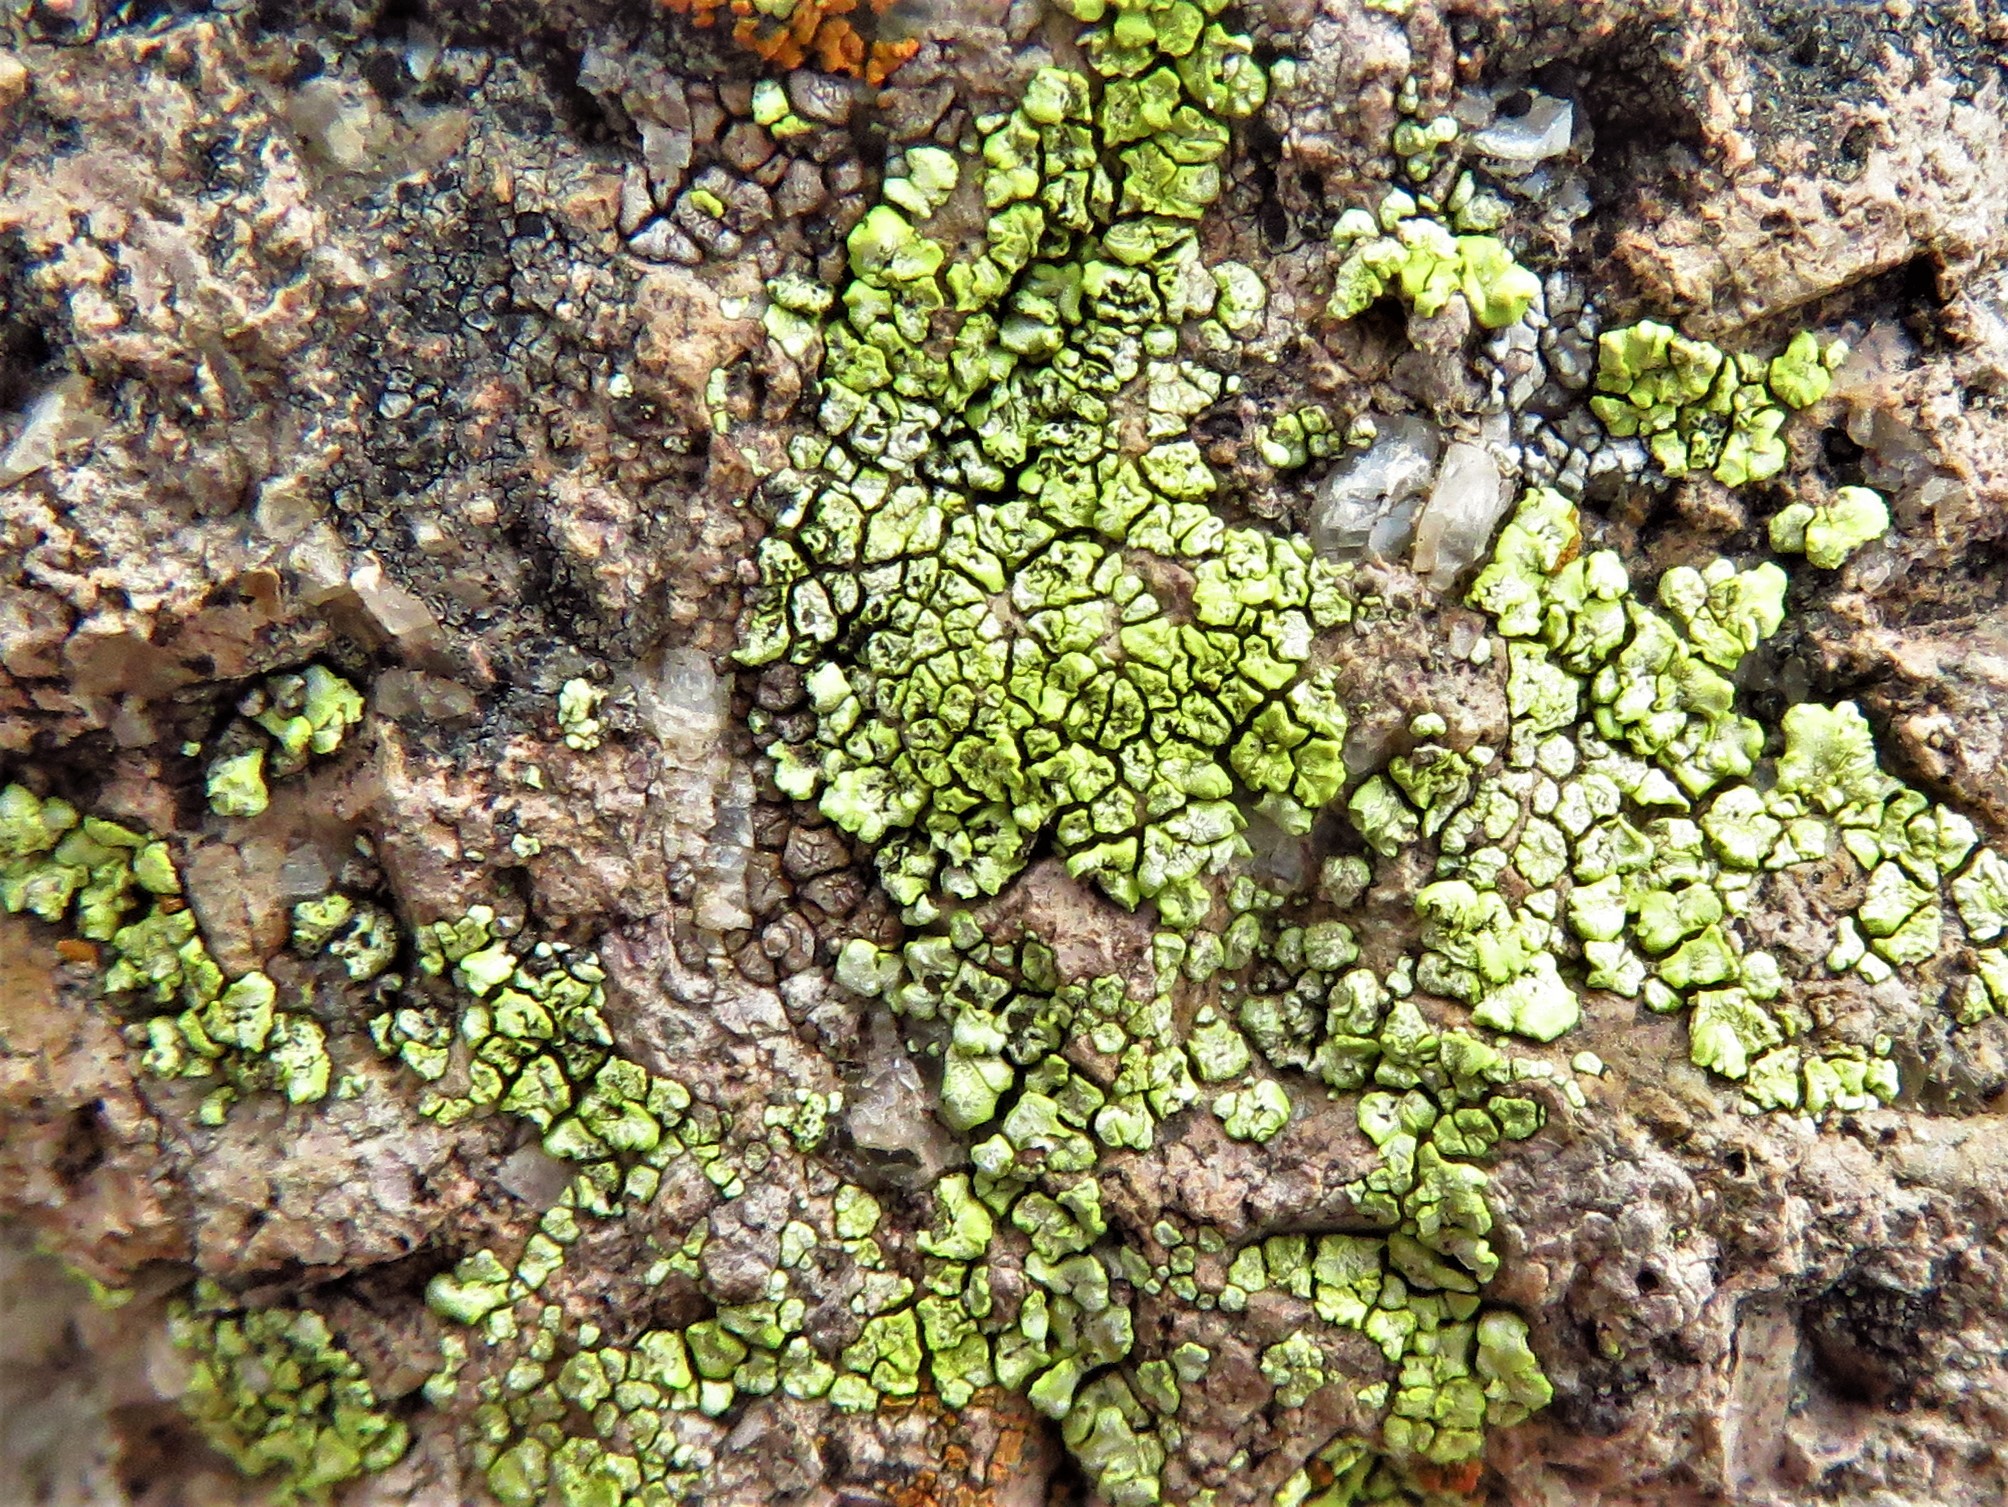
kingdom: Fungi
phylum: Ascomycota
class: Lecanoromycetes
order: Acarosporales
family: Acarosporaceae
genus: Acarospora
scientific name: Acarospora socialis
